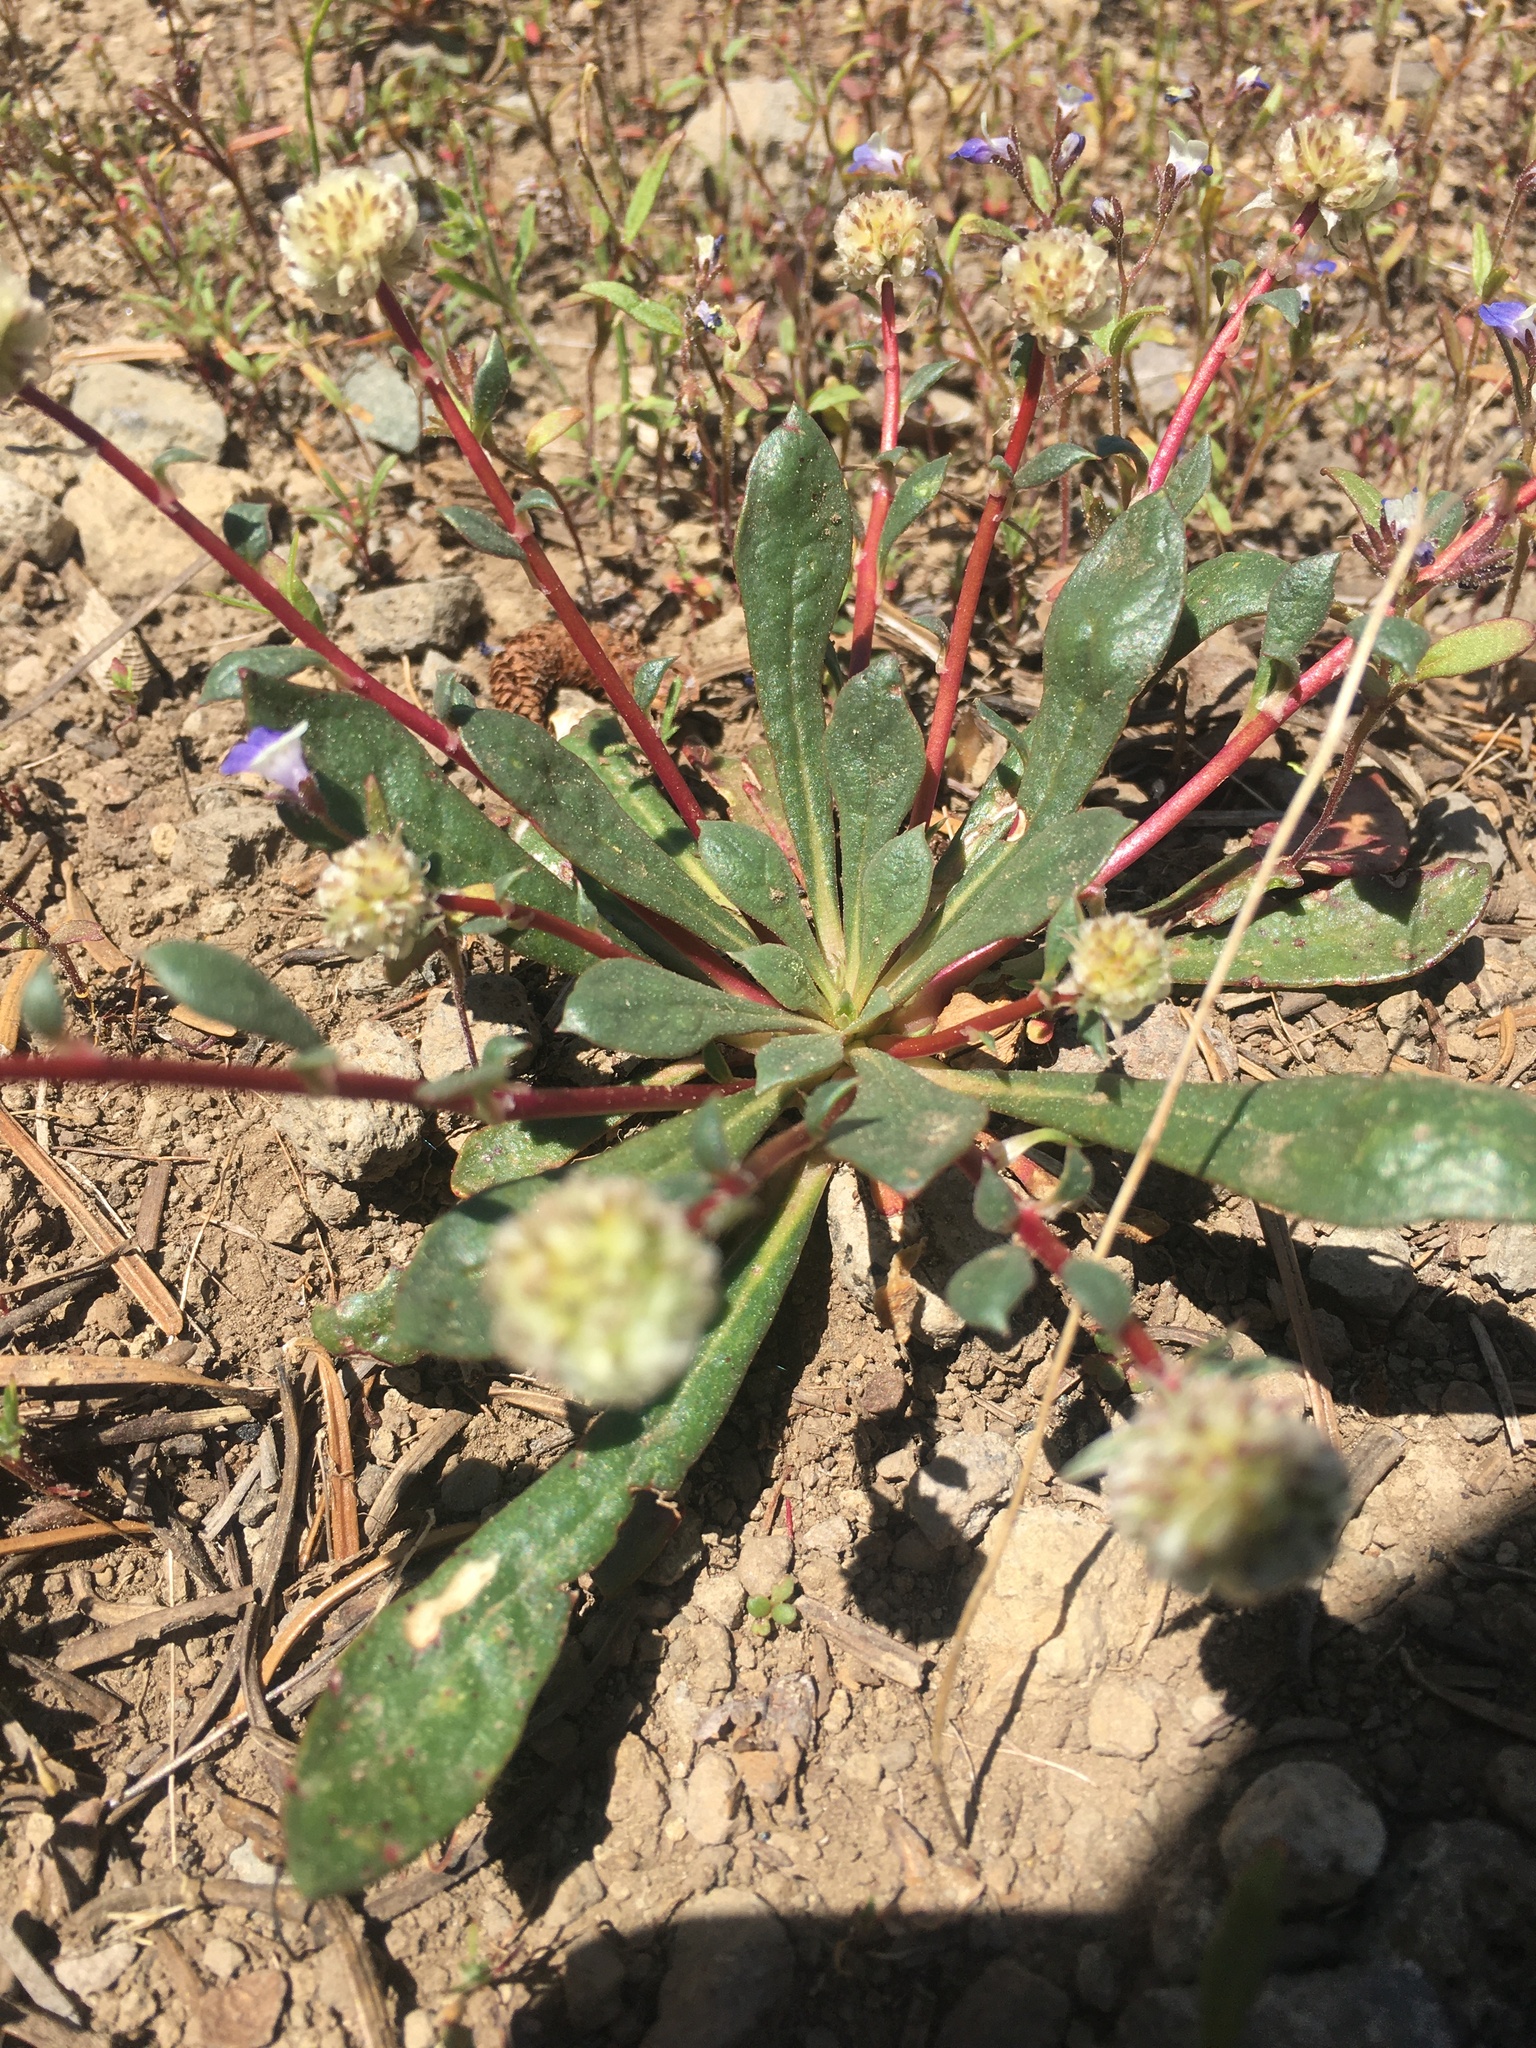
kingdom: Plantae
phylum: Tracheophyta
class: Magnoliopsida
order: Caryophyllales
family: Montiaceae
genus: Calyptridium
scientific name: Calyptridium monospermum
